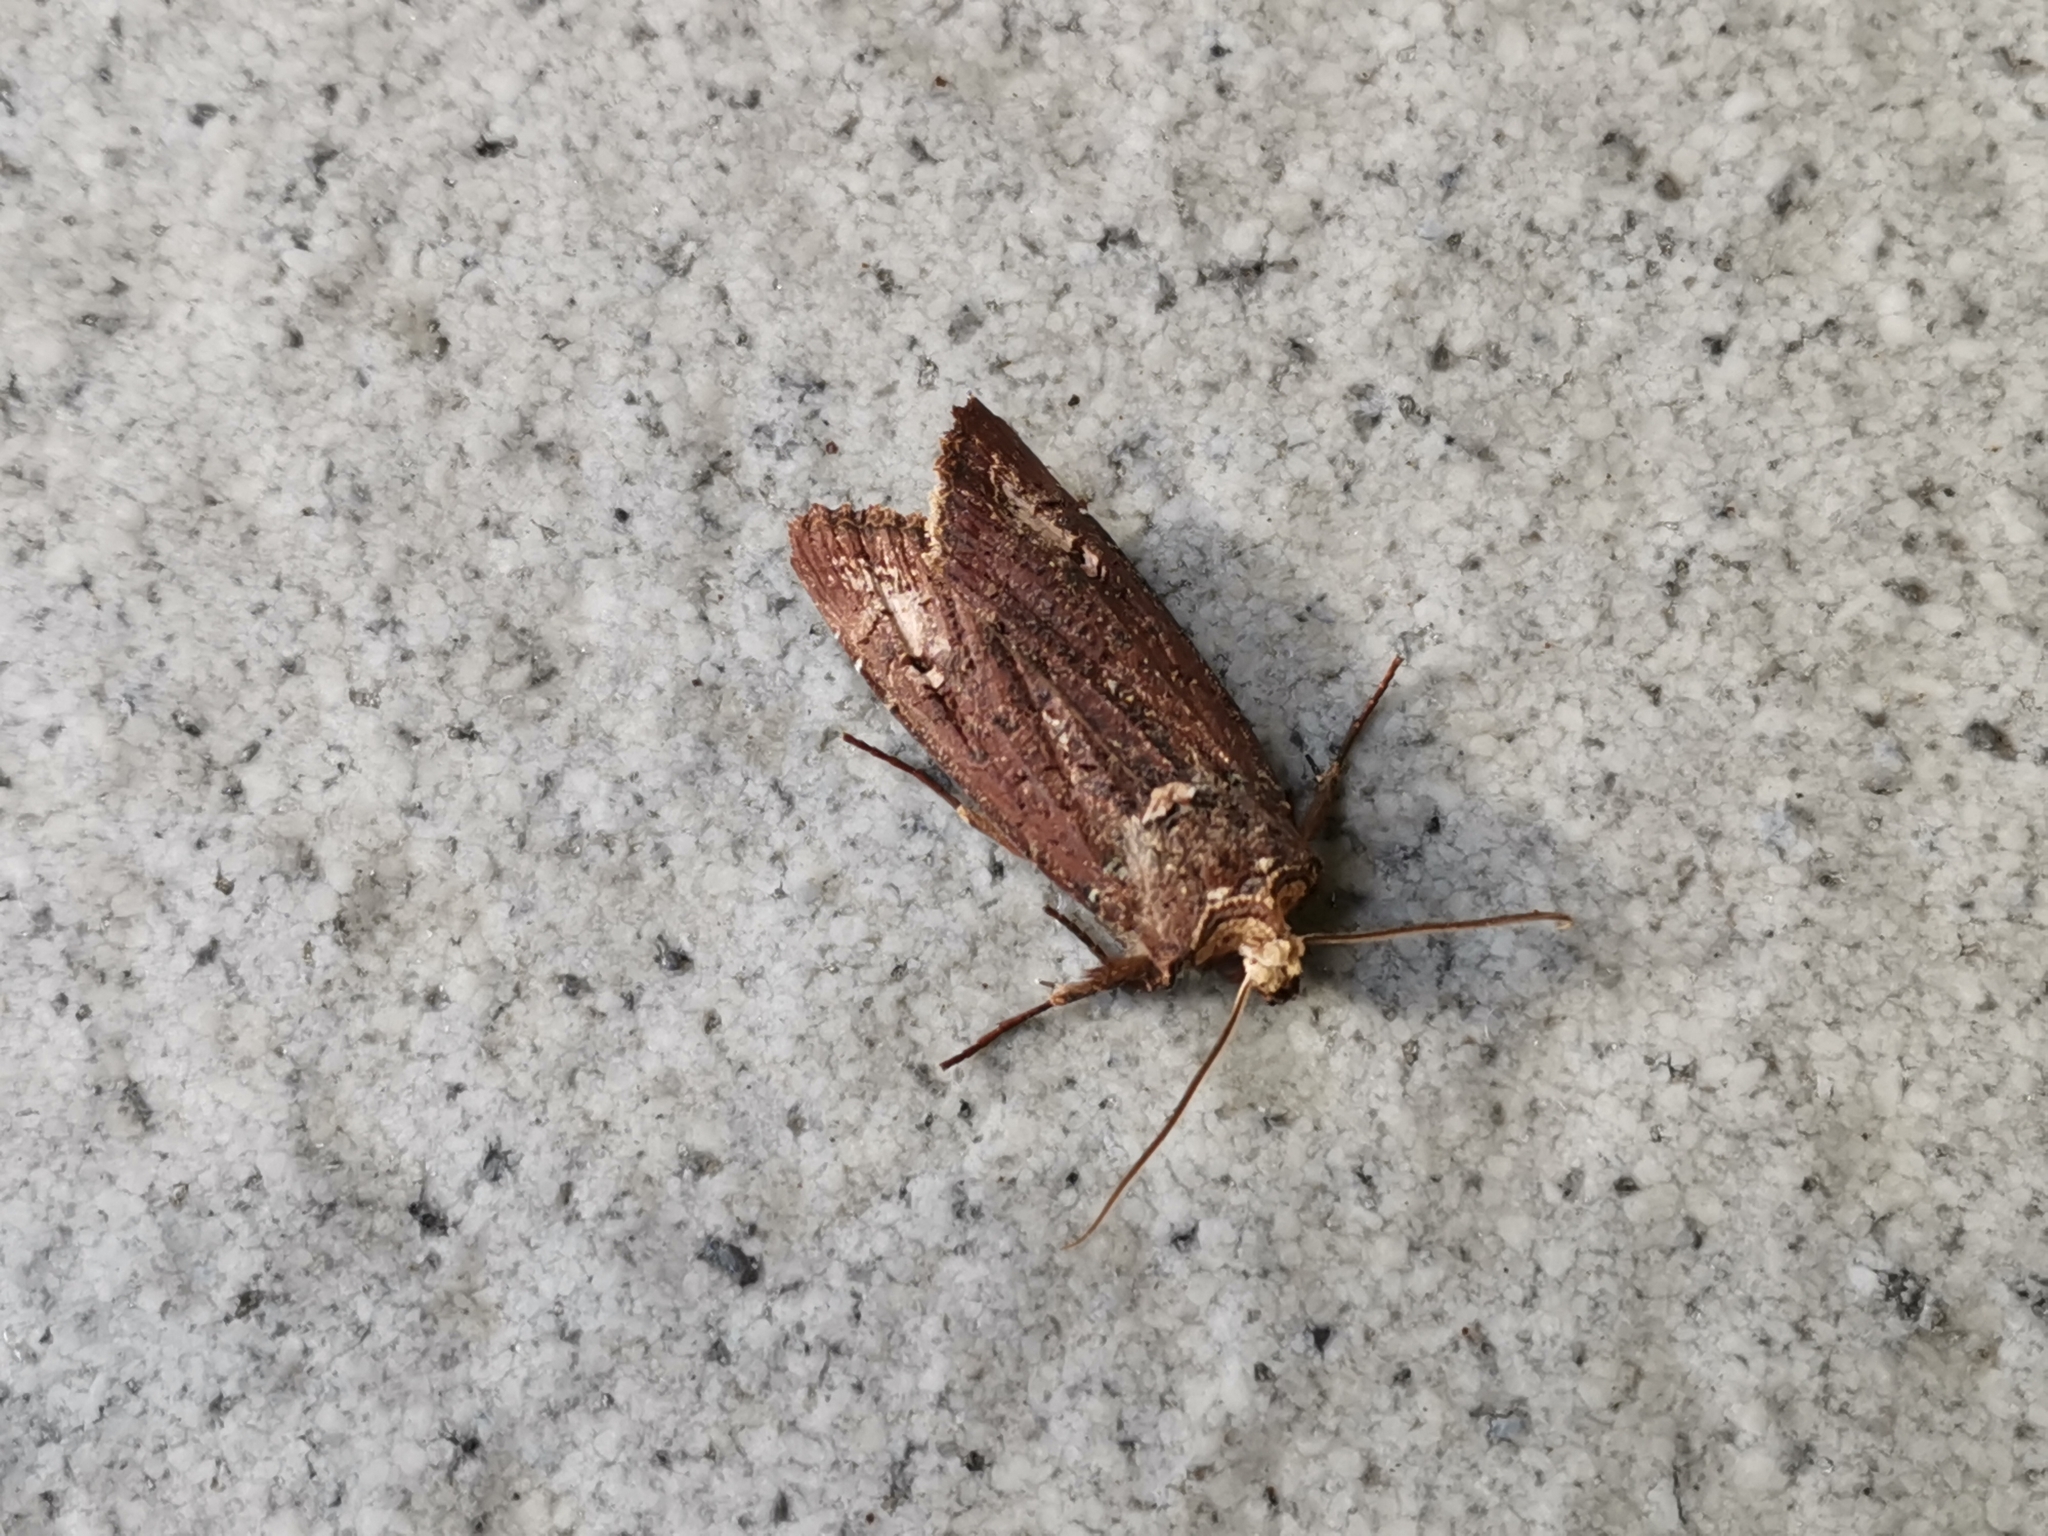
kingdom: Animalia
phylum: Arthropoda
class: Insecta
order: Lepidoptera
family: Noctuidae
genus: Xylena
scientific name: Xylena changi
